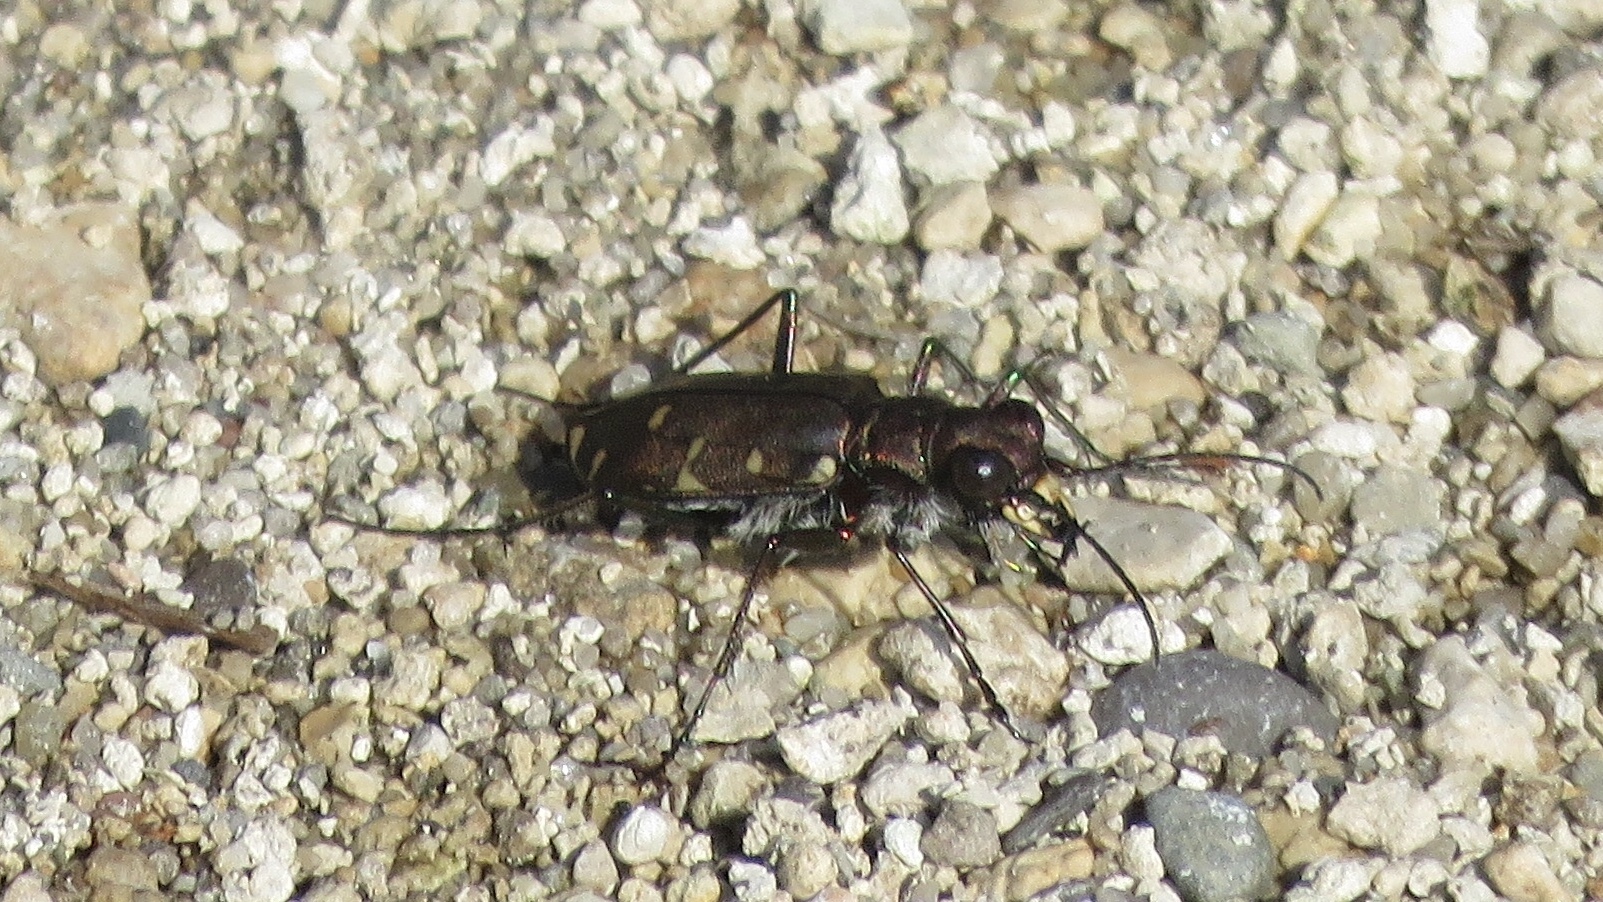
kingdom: Animalia
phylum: Arthropoda
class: Insecta
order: Coleoptera
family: Carabidae
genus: Cicindela
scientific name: Cicindela duodecimguttata
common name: Twelve-spotted tiger beetle
